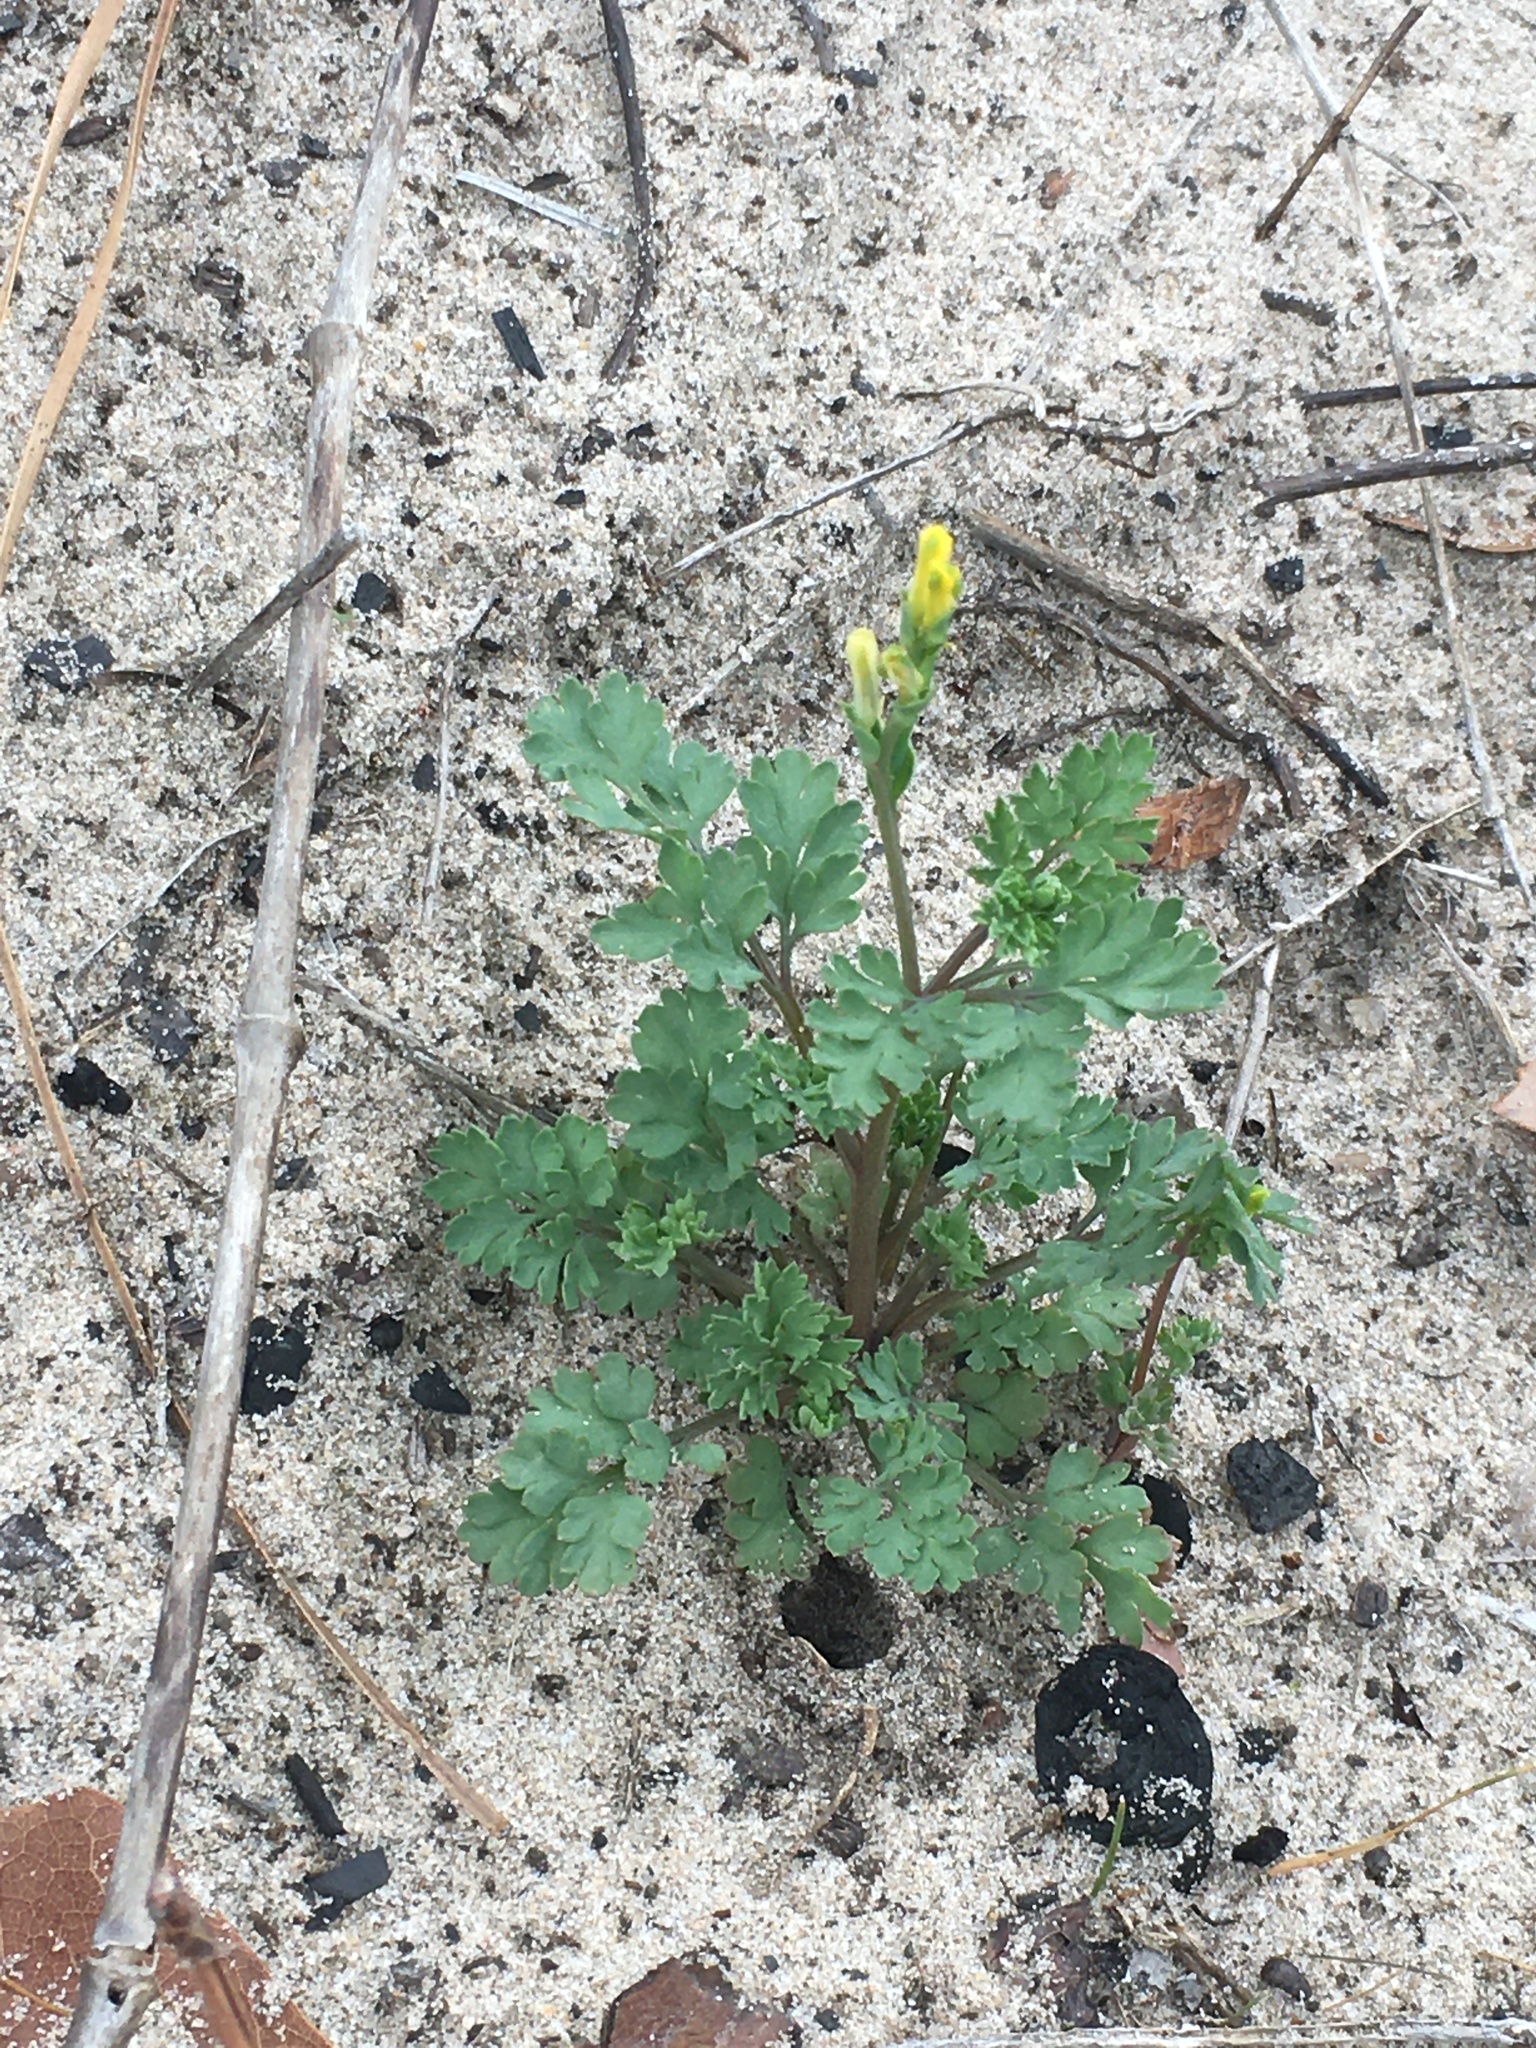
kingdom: Plantae
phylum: Tracheophyta
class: Magnoliopsida
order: Ranunculales
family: Papaveraceae
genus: Corydalis
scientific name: Corydalis micrantha
